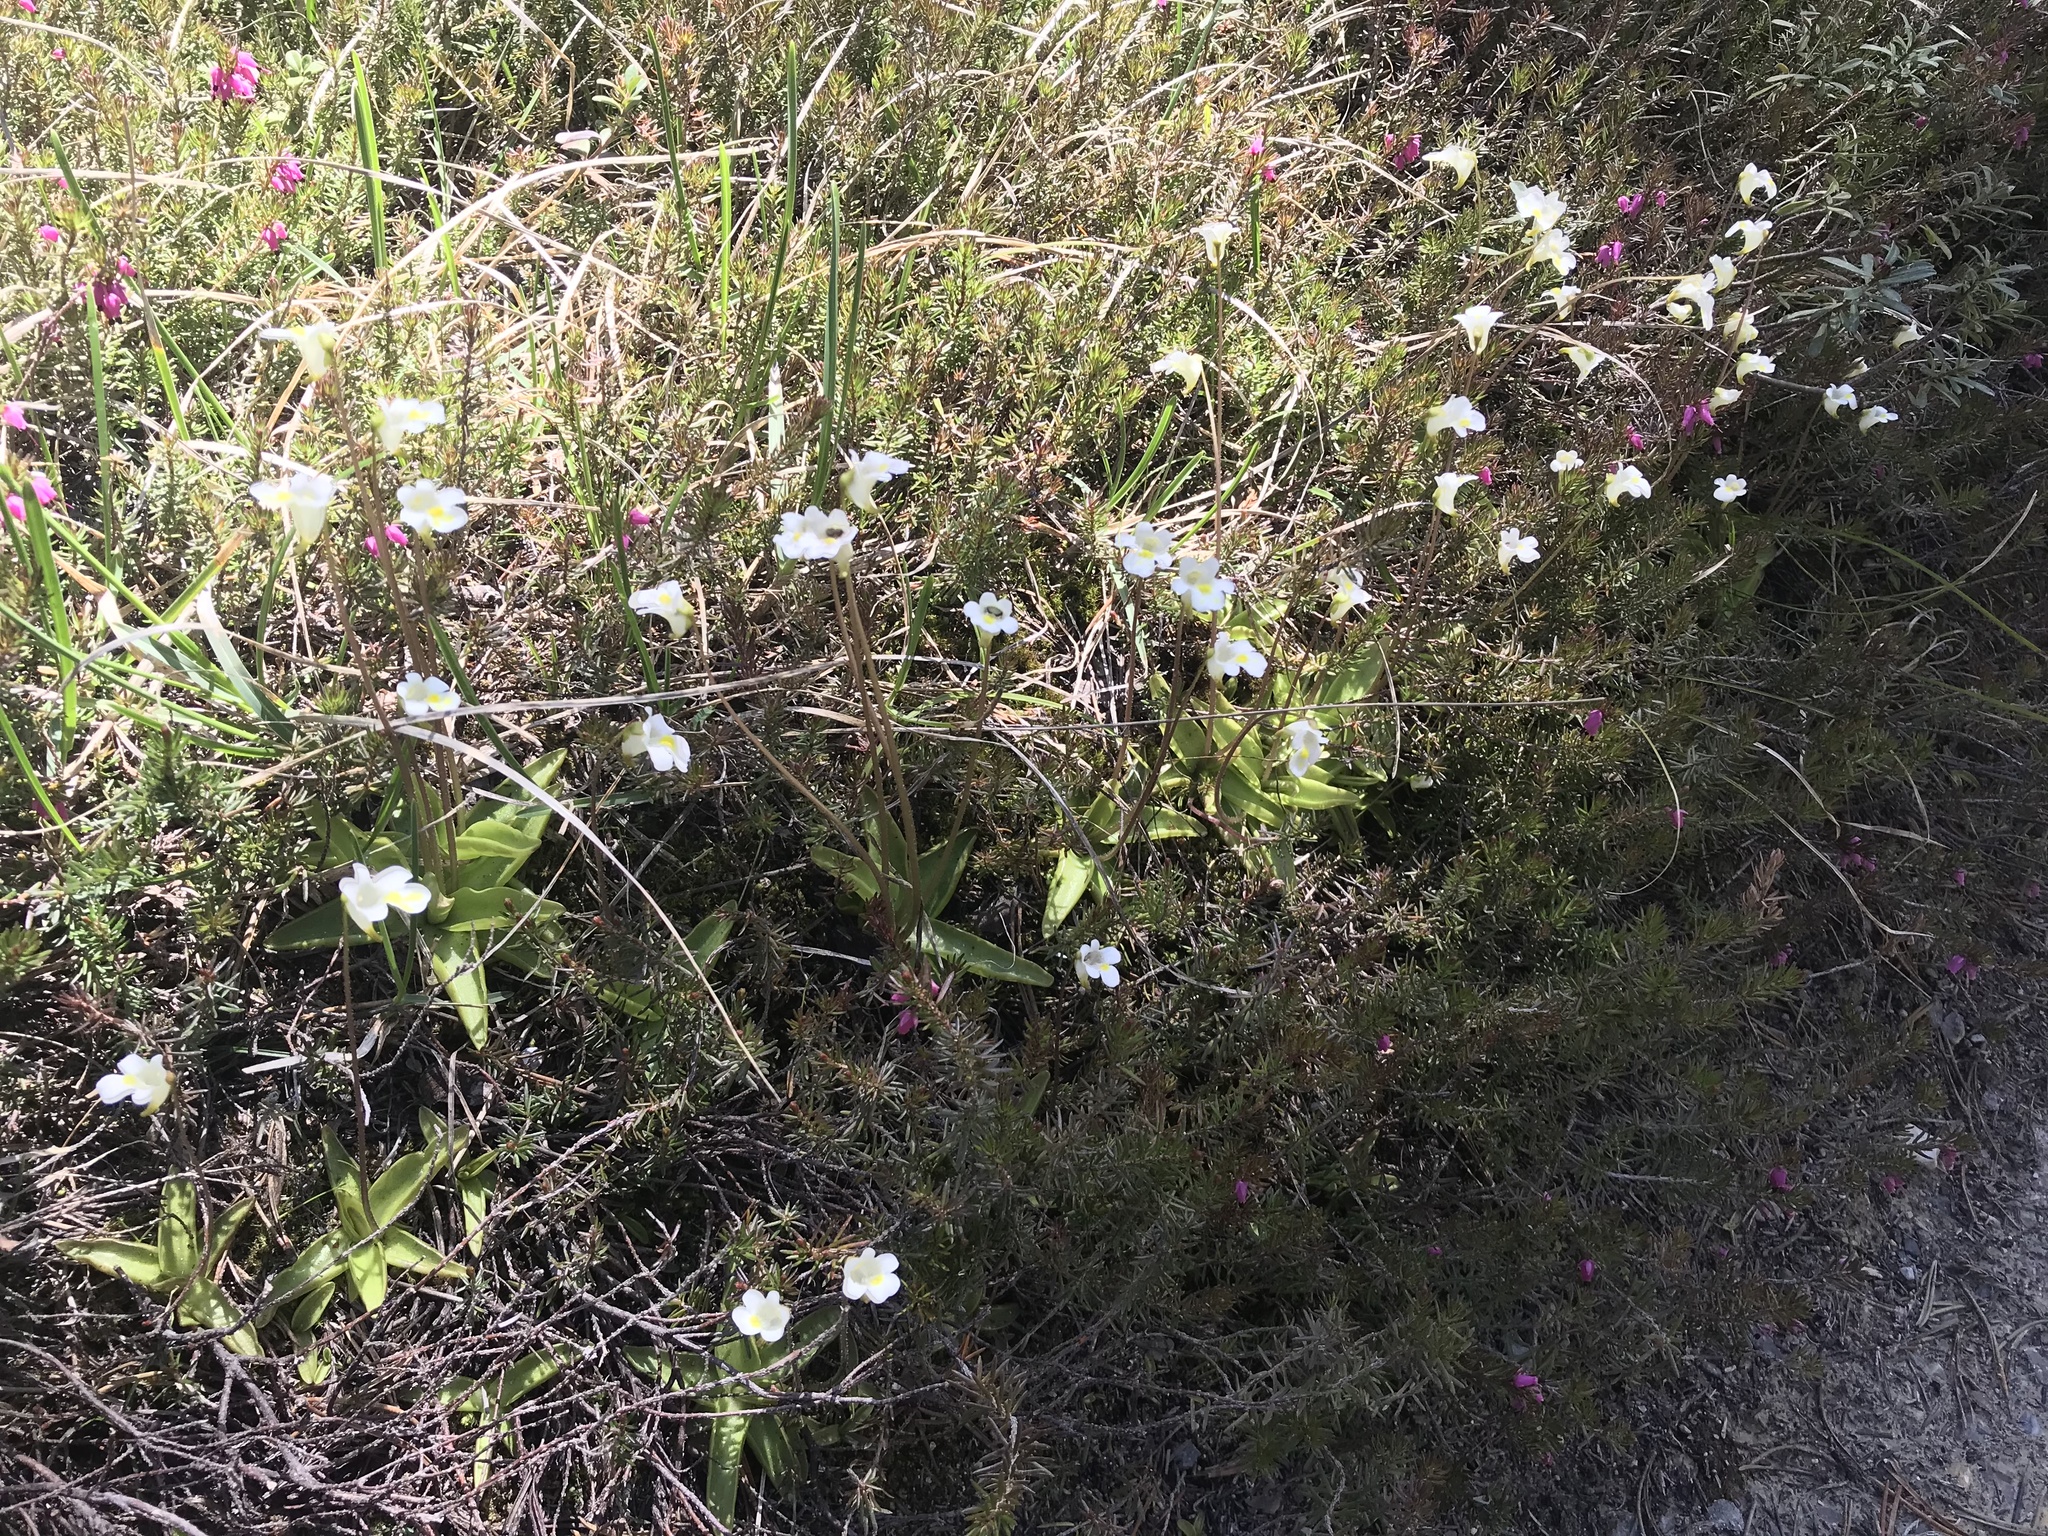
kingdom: Plantae
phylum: Tracheophyta
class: Magnoliopsida
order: Lamiales
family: Lentibulariaceae
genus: Pinguicula
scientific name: Pinguicula alpina
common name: Alpine butterwort
